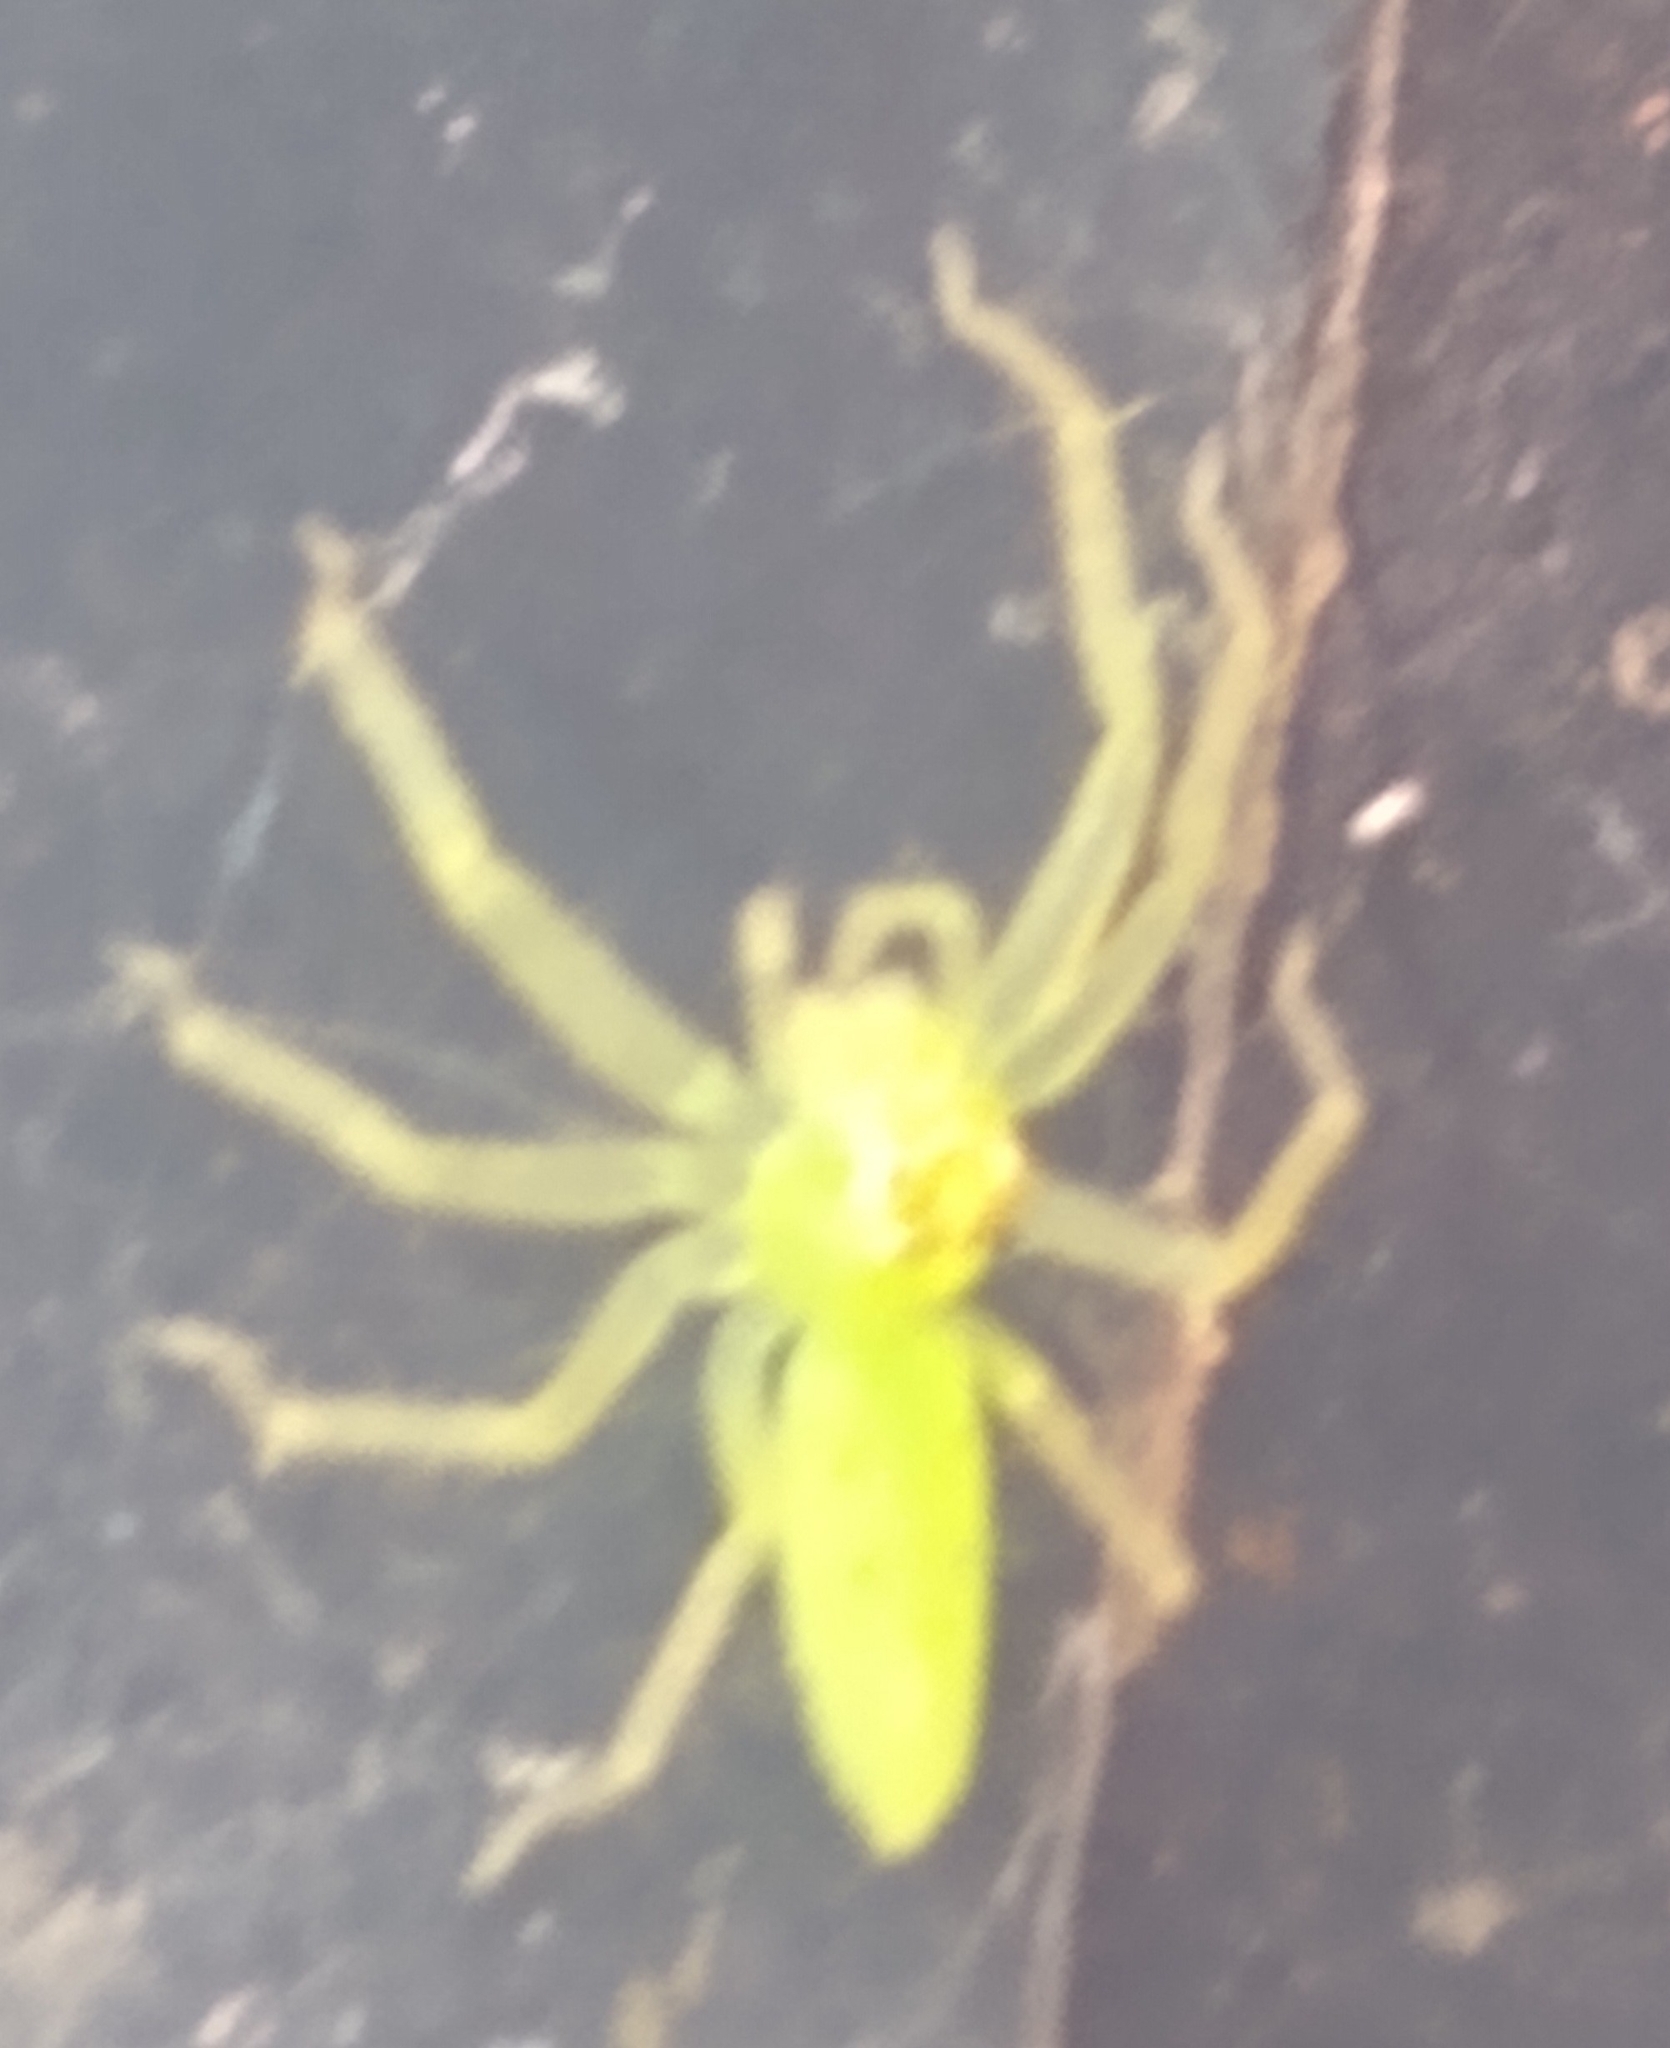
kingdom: Animalia
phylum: Arthropoda
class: Arachnida
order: Araneae
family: Salticidae
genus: Lyssomanes
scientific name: Lyssomanes viridis
